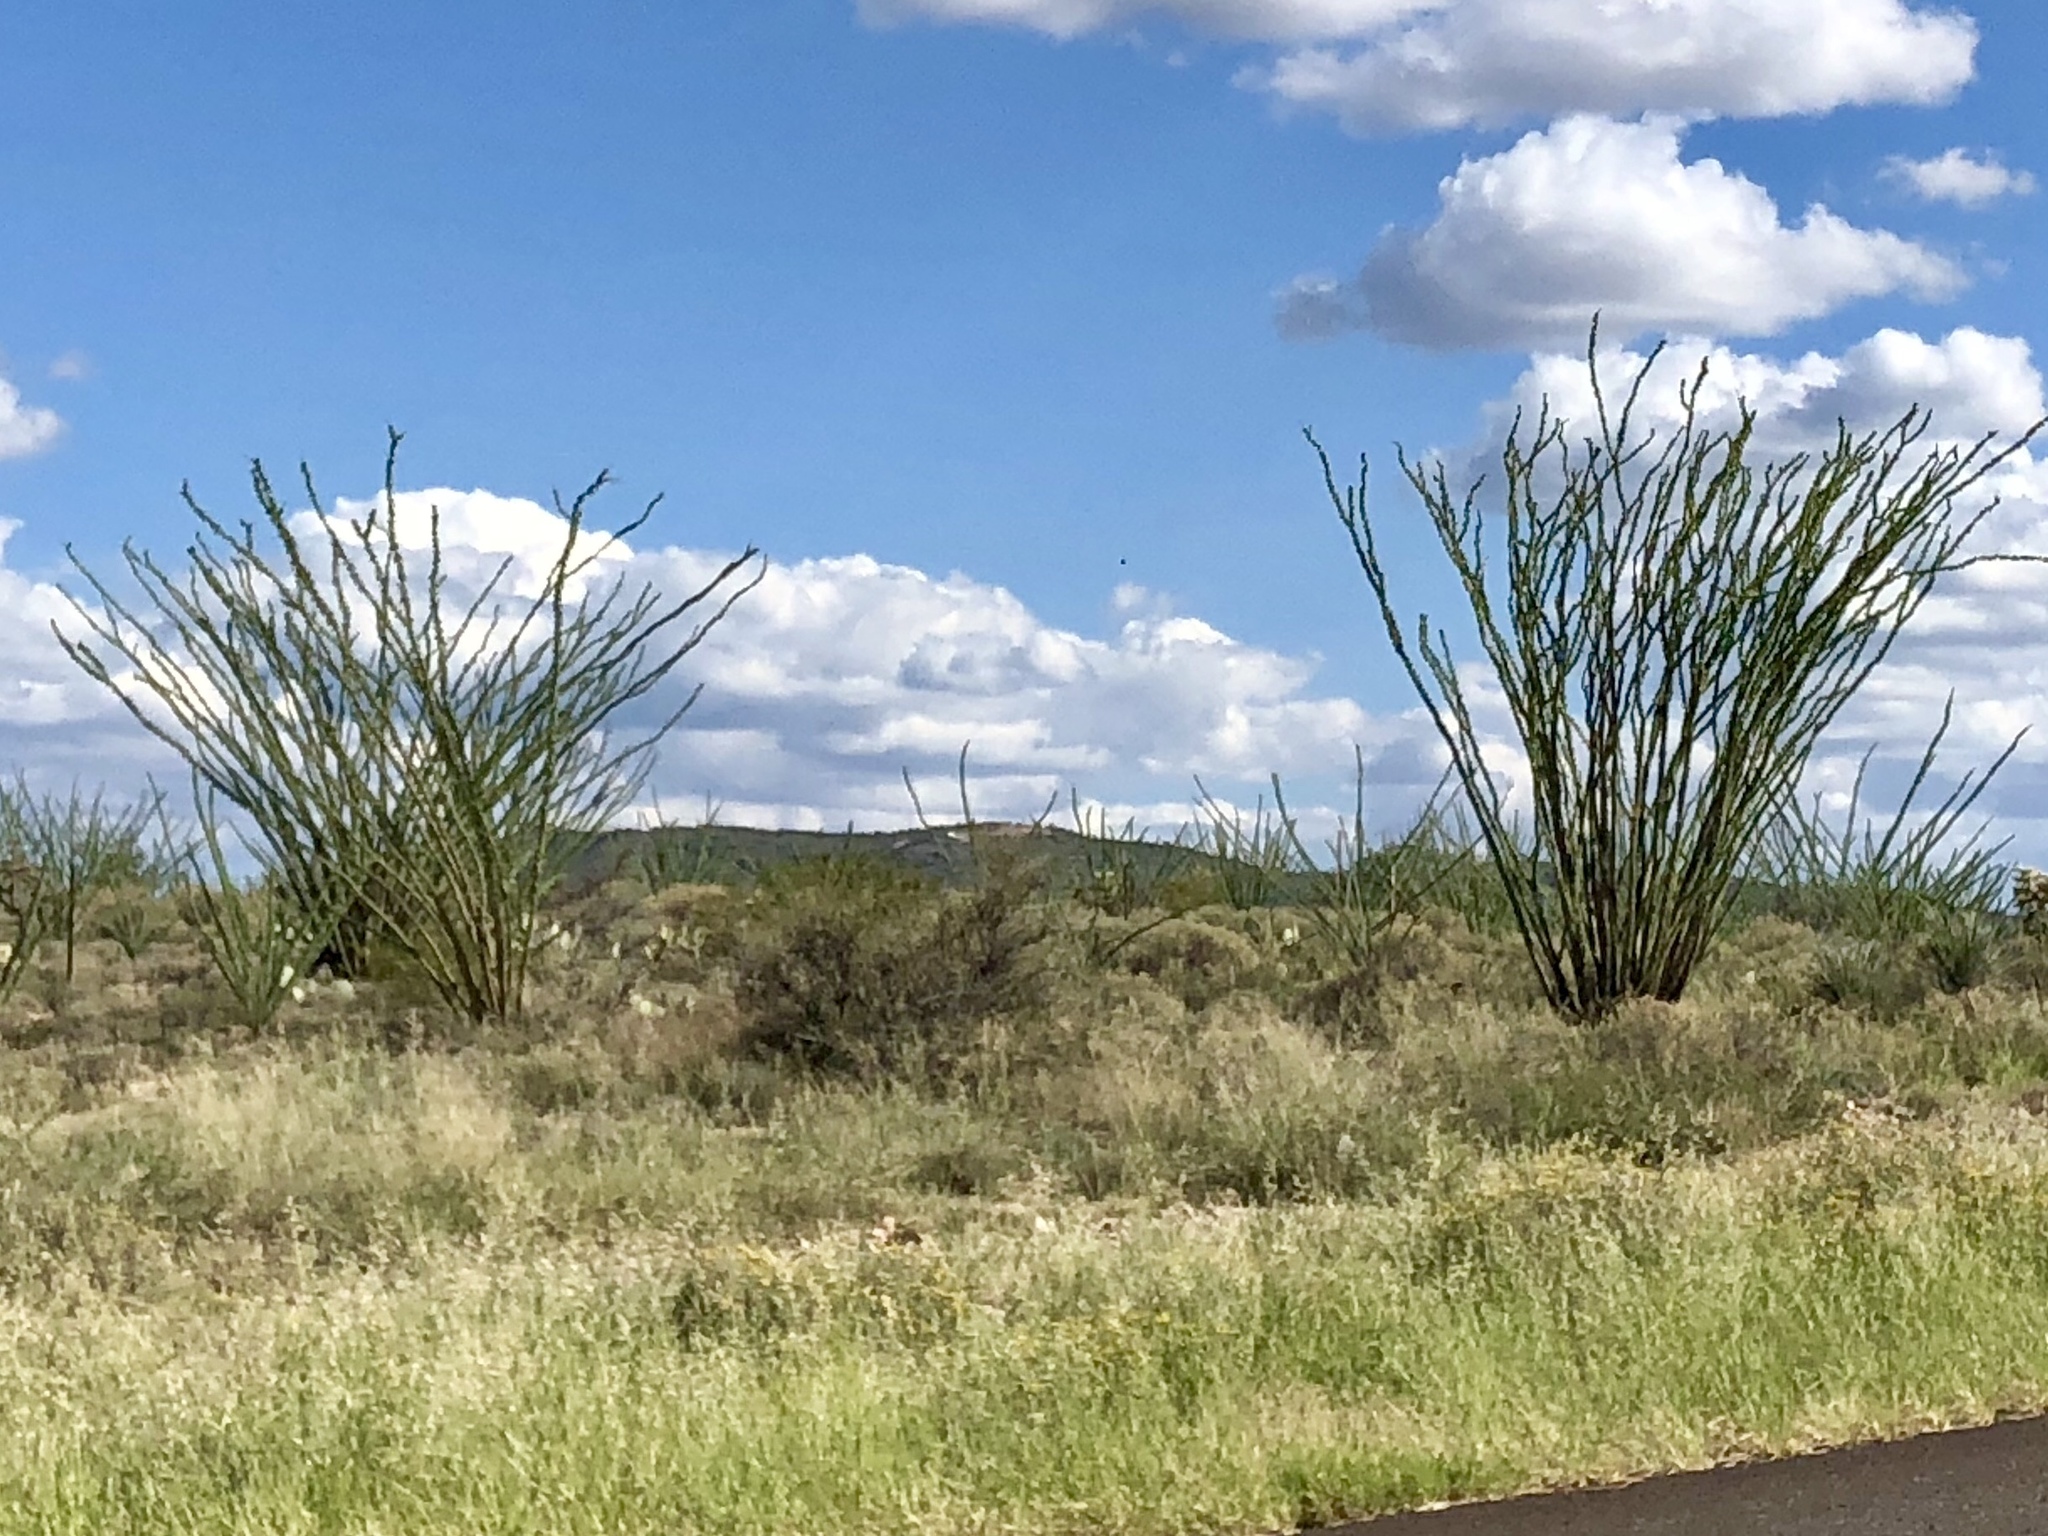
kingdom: Plantae
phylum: Tracheophyta
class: Magnoliopsida
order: Ericales
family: Fouquieriaceae
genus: Fouquieria
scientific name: Fouquieria splendens
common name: Vine-cactus
